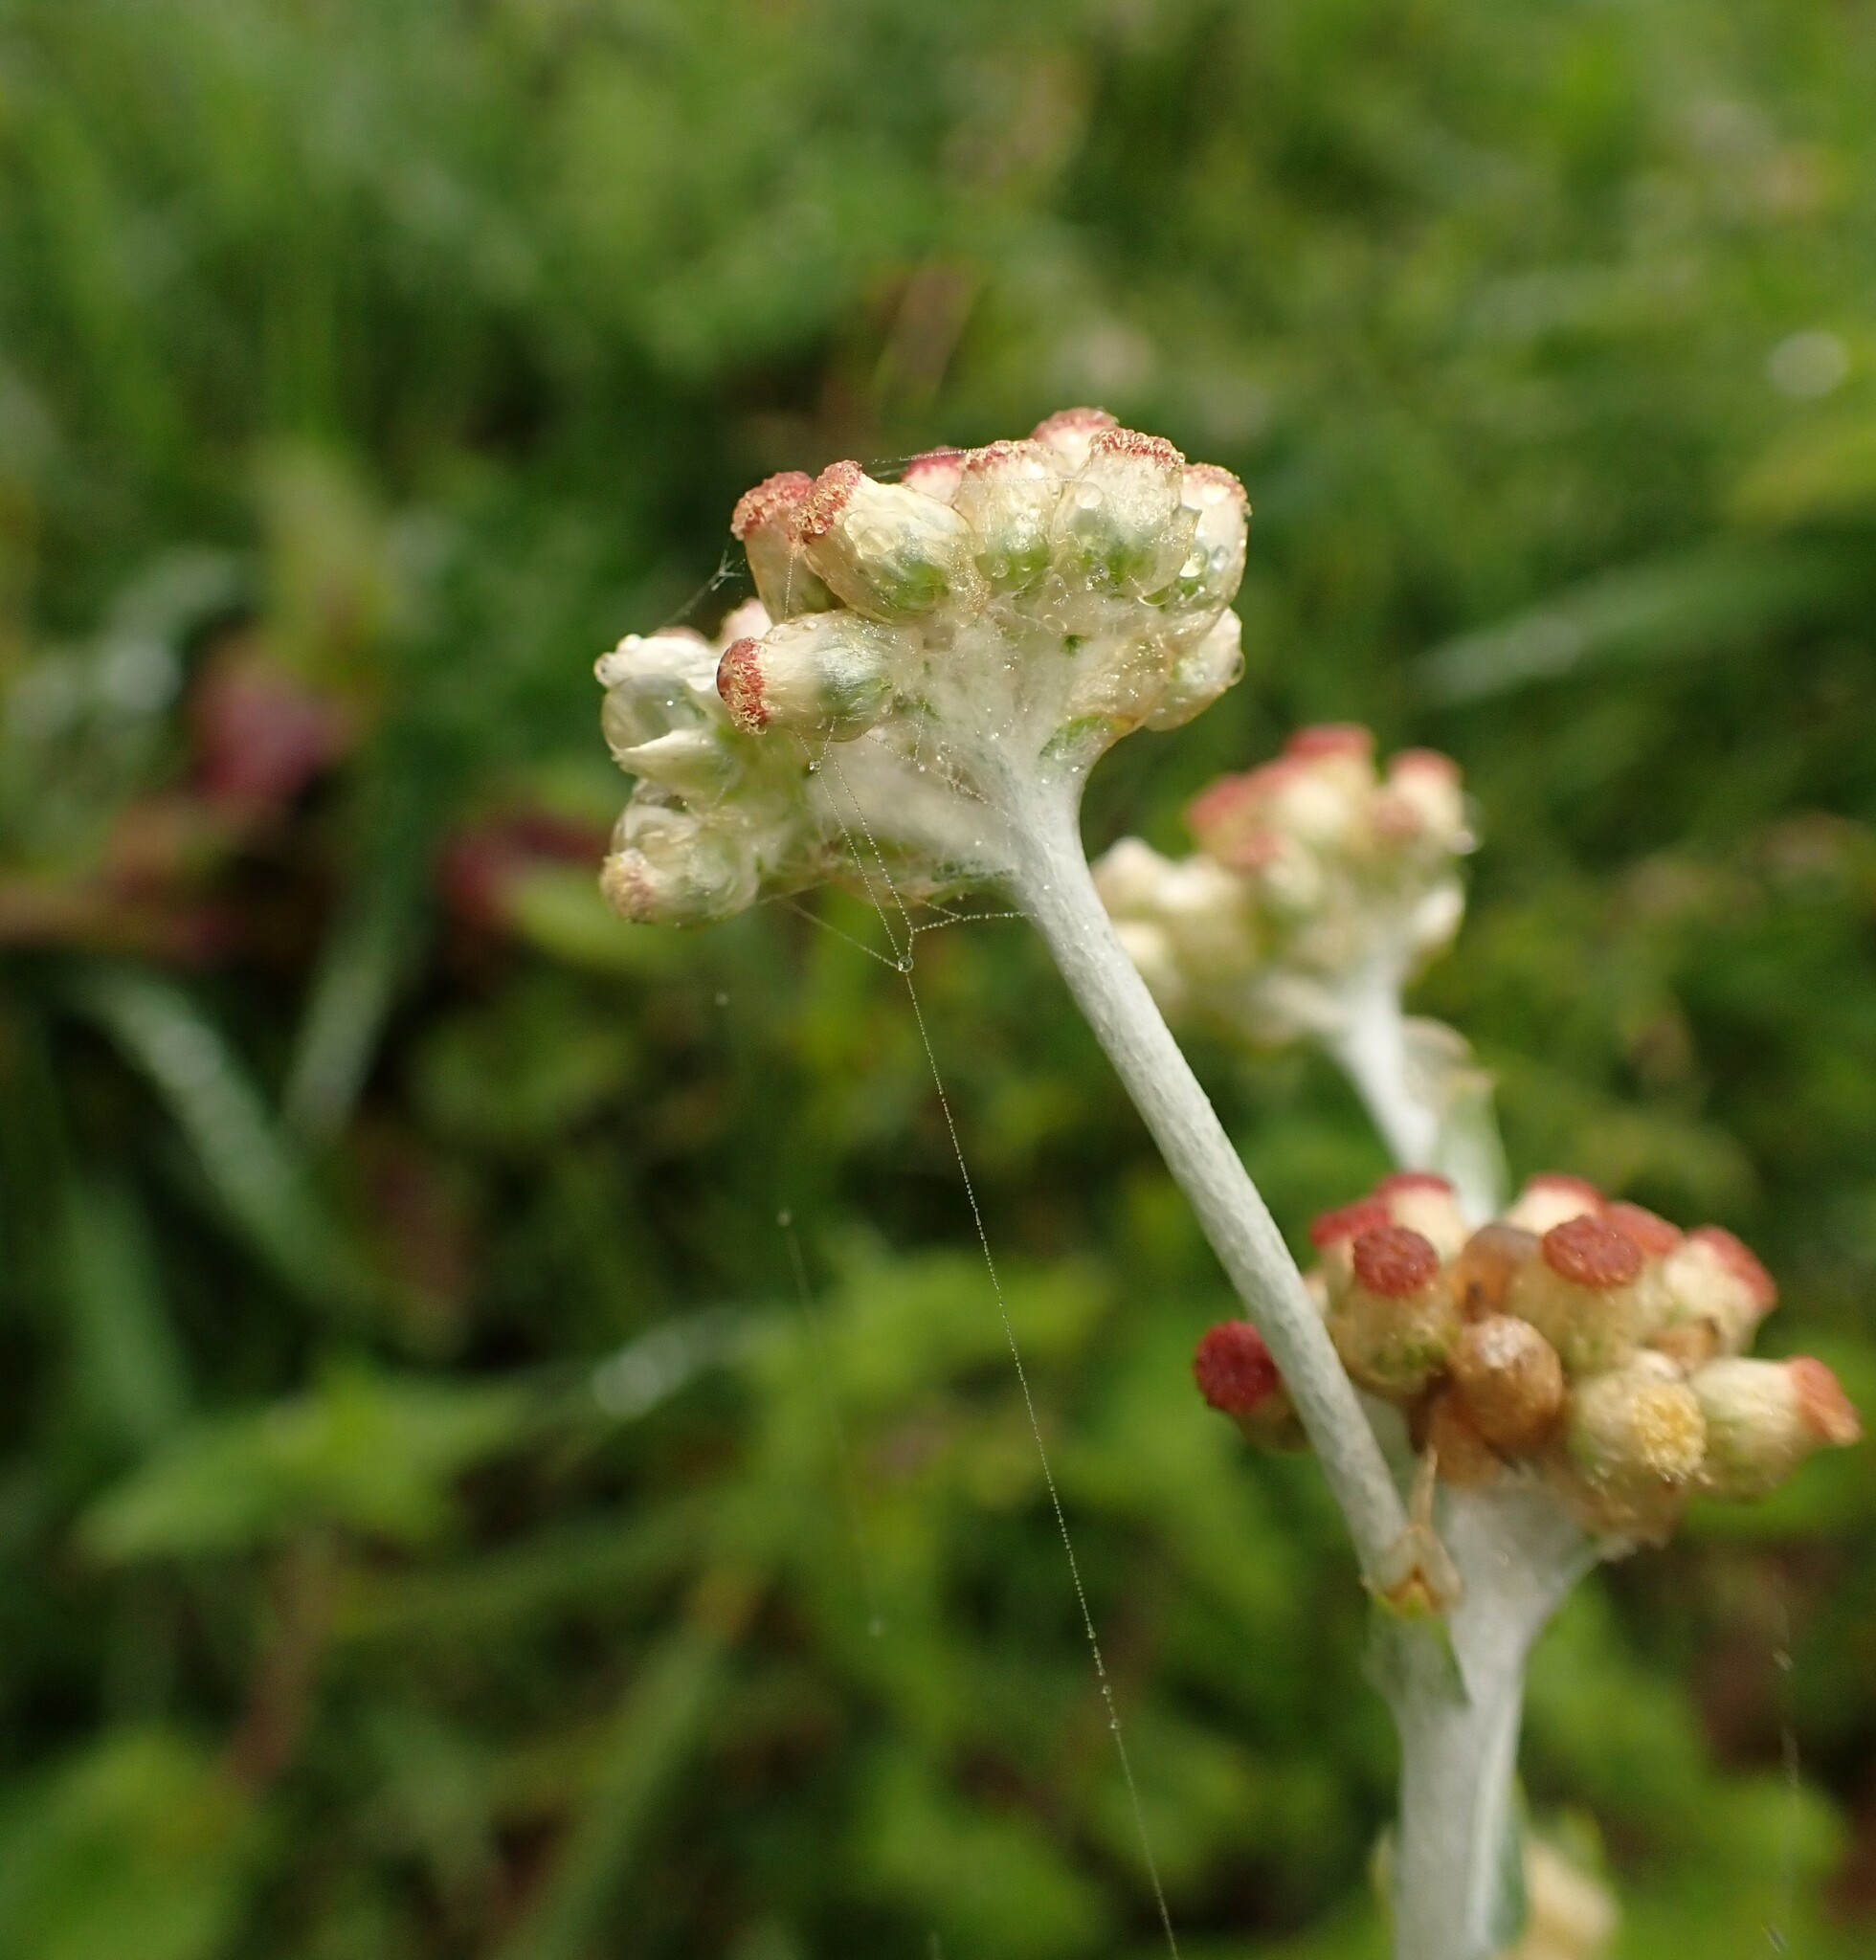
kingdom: Plantae
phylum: Tracheophyta
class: Magnoliopsida
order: Asterales
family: Asteraceae
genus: Helichrysum
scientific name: Helichrysum luteoalbum
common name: Daisy
